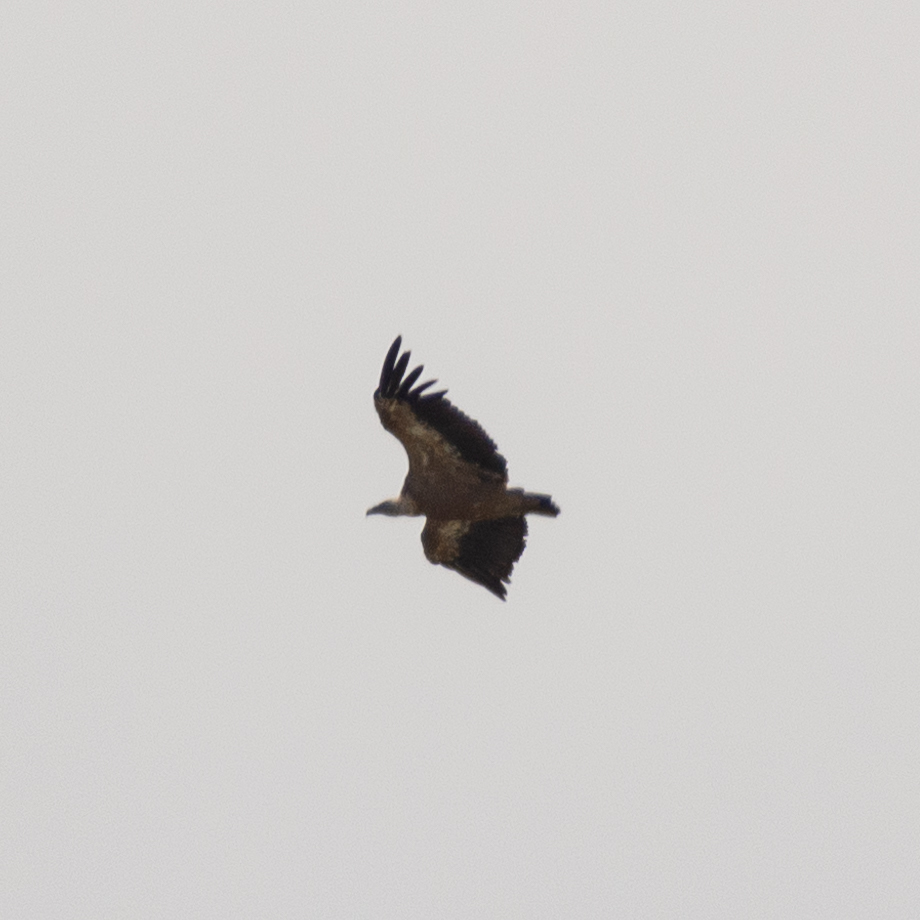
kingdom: Animalia
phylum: Chordata
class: Aves
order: Accipitriformes
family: Accipitridae
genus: Gyps
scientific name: Gyps fulvus
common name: Griffon vulture
